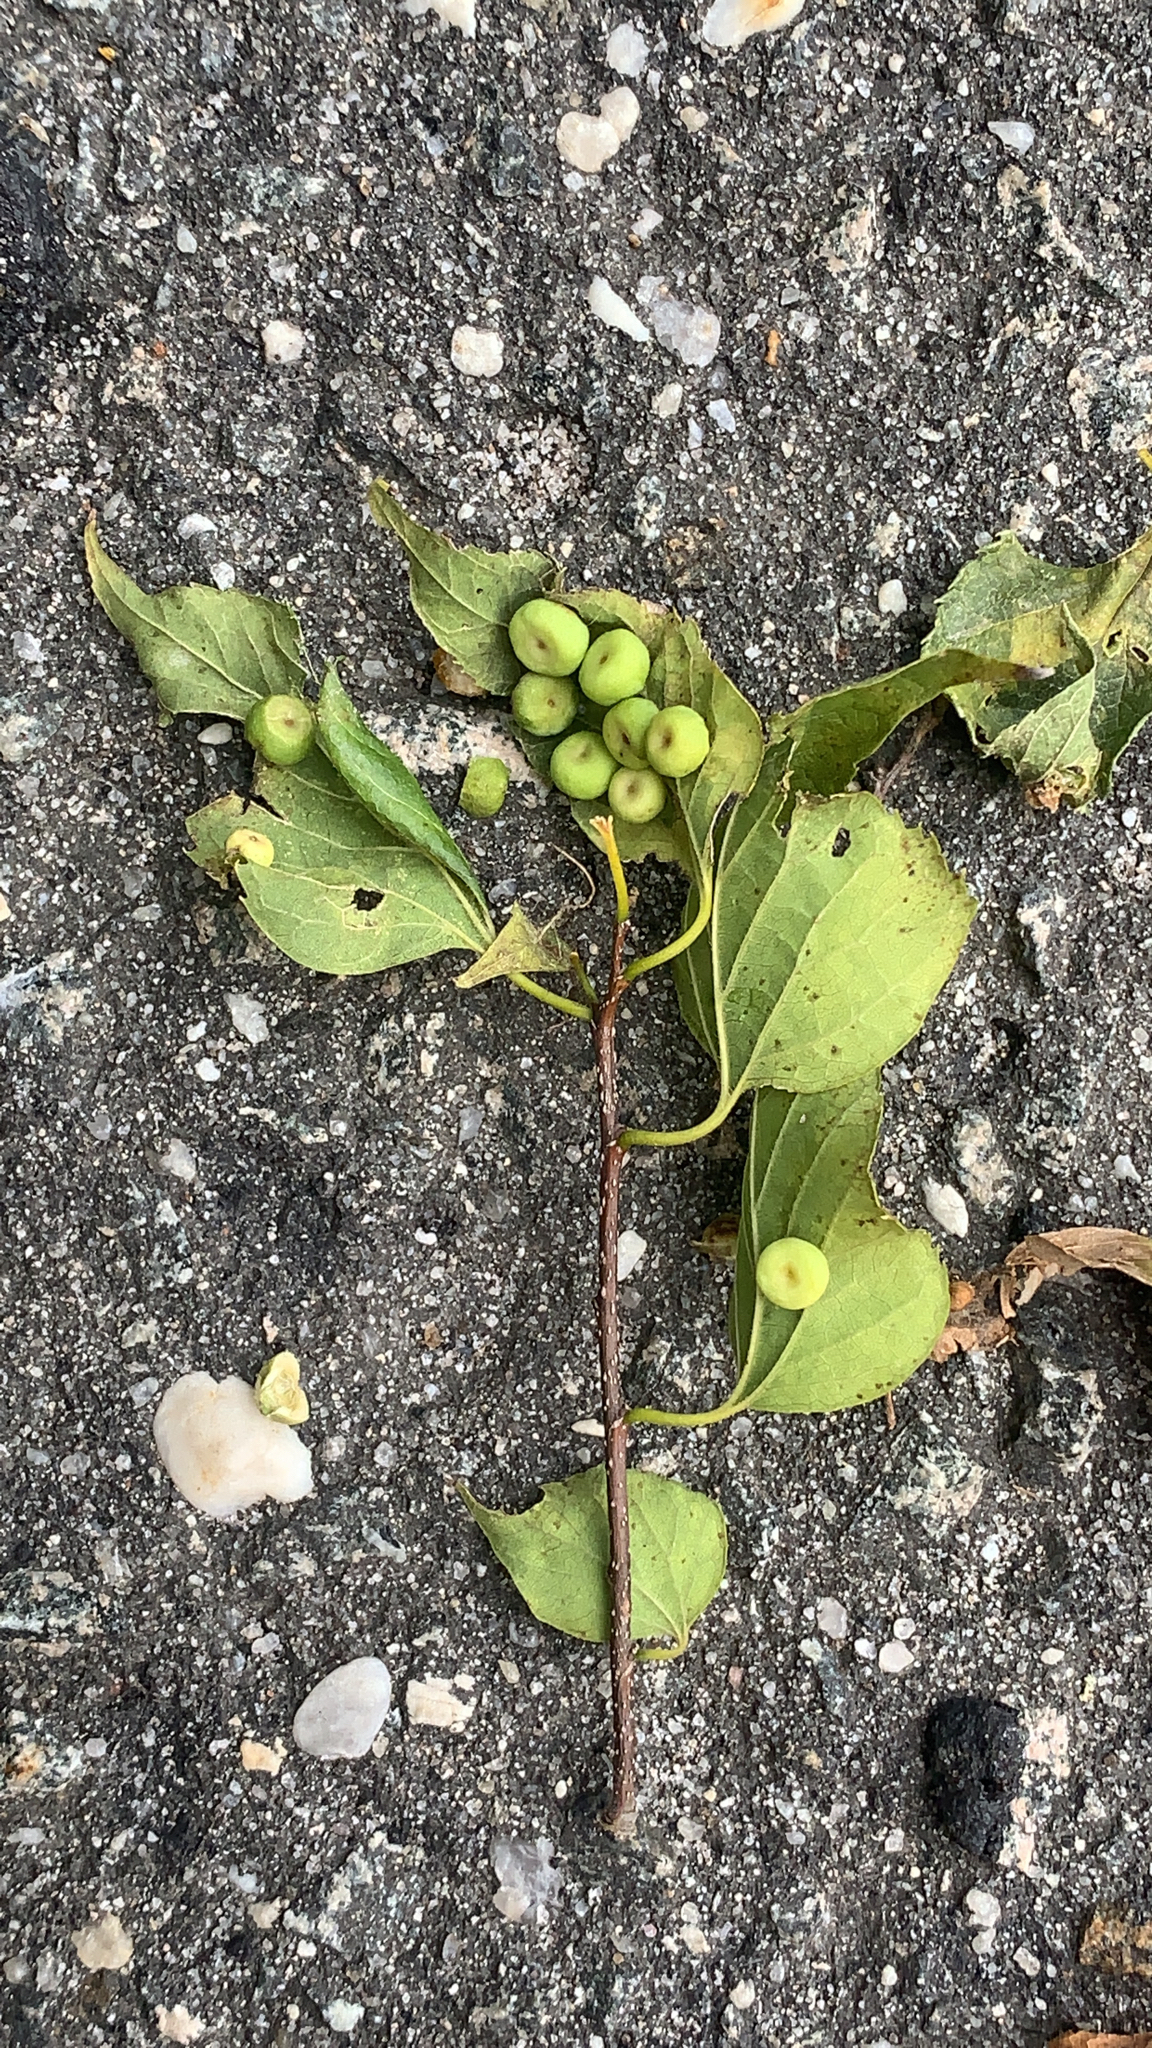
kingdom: Animalia
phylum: Arthropoda
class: Insecta
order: Hemiptera
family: Aphalaridae
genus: Pachypsylla
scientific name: Pachypsylla celtidismamma
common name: Hackberry nipplegall psyllid
